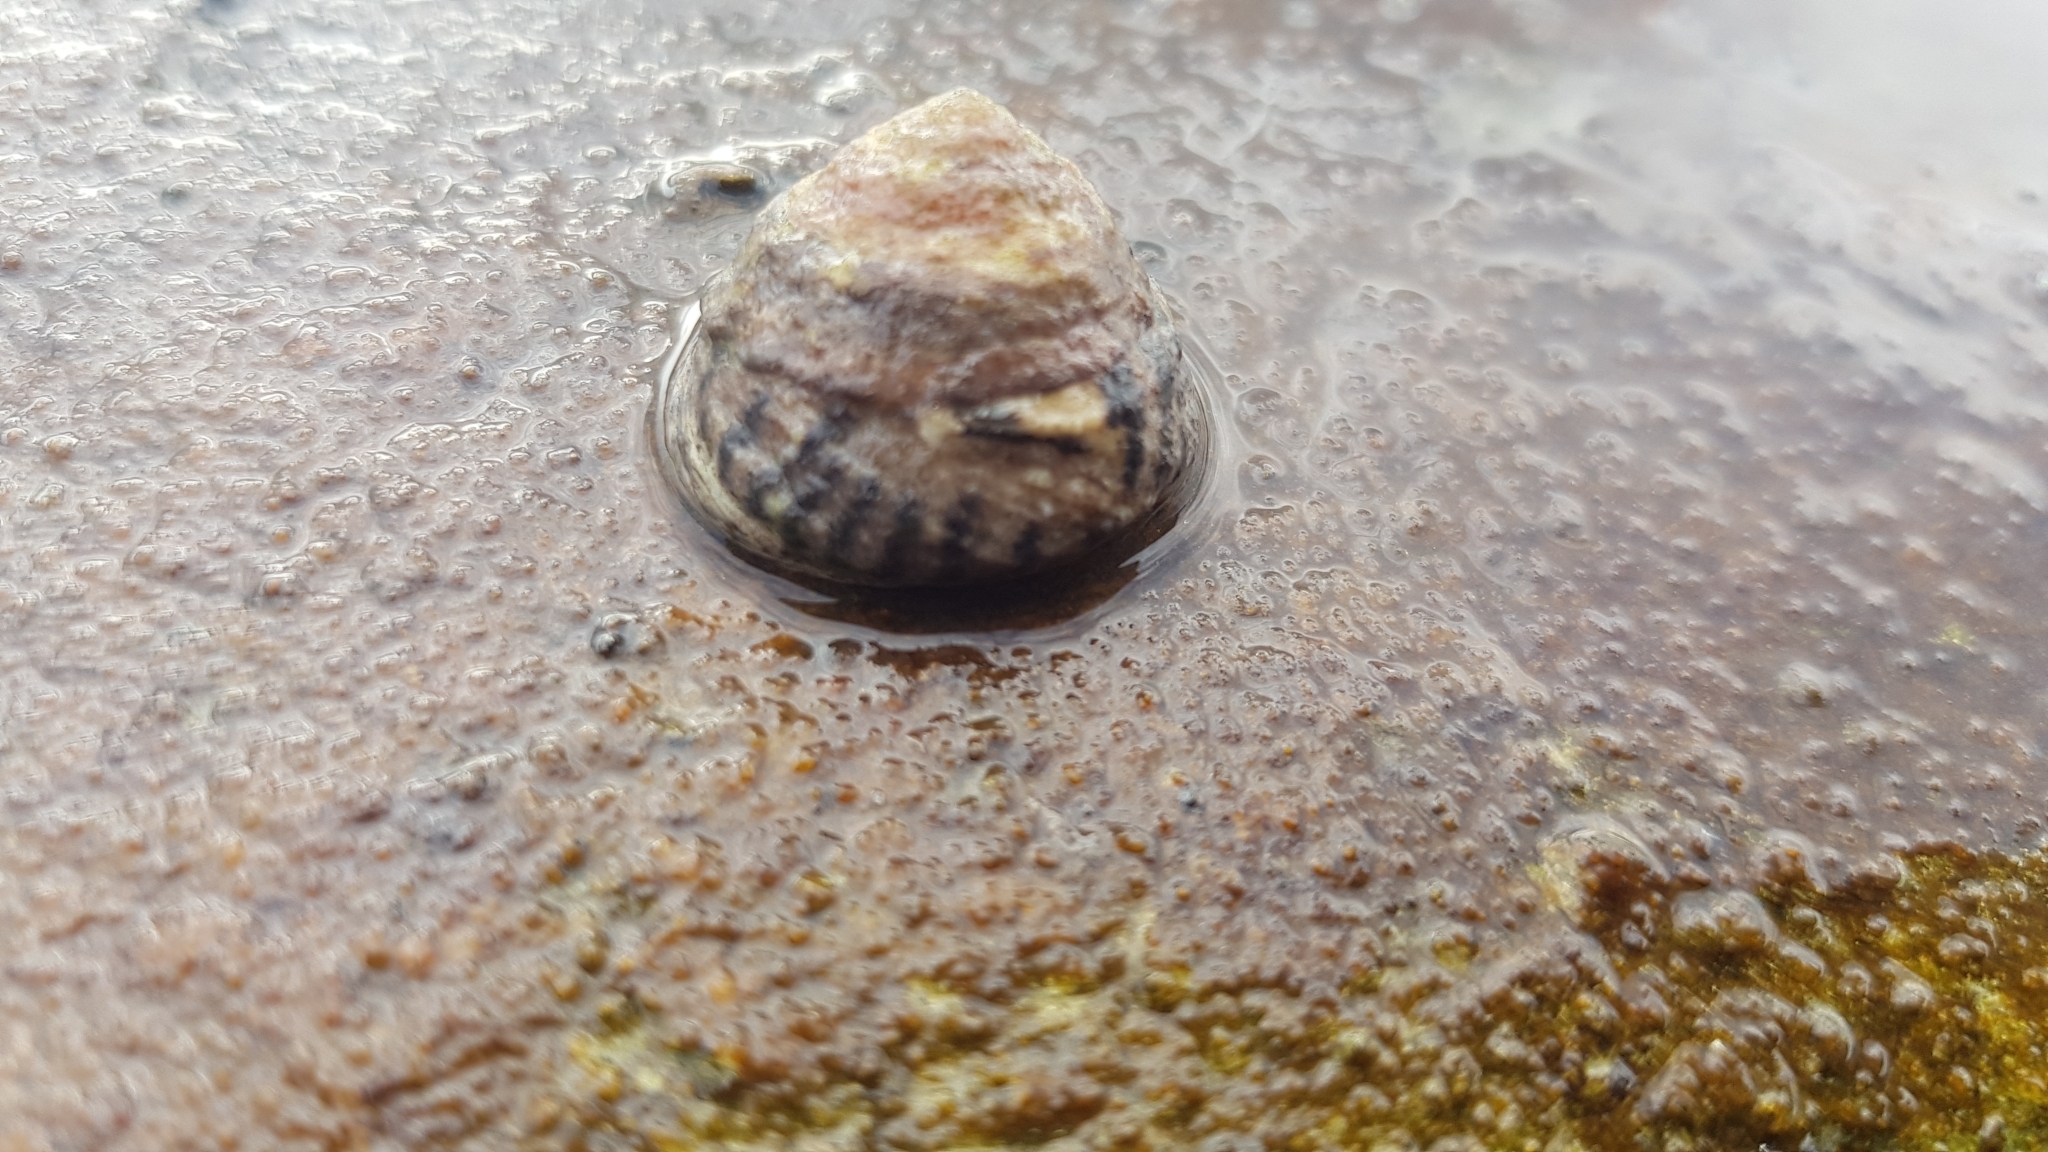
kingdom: Animalia
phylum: Mollusca
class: Gastropoda
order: Littorinimorpha
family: Littorinidae
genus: Bembicium
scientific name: Bembicium nanum
